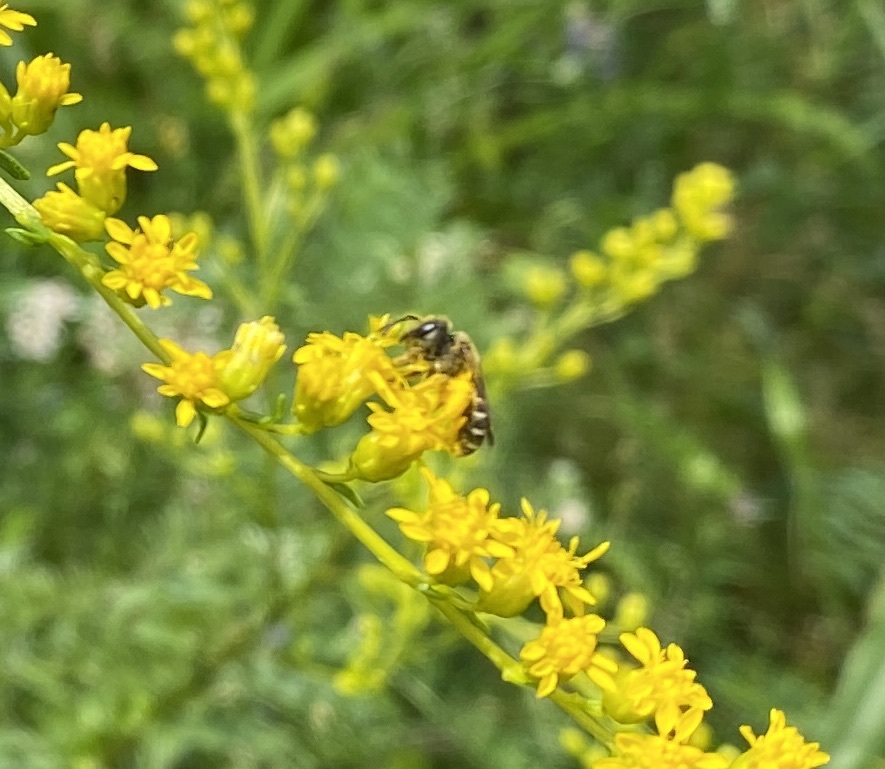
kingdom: Animalia
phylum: Arthropoda
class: Insecta
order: Hymenoptera
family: Halictidae
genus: Halictus
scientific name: Halictus ligatus
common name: Ligated furrow bee
